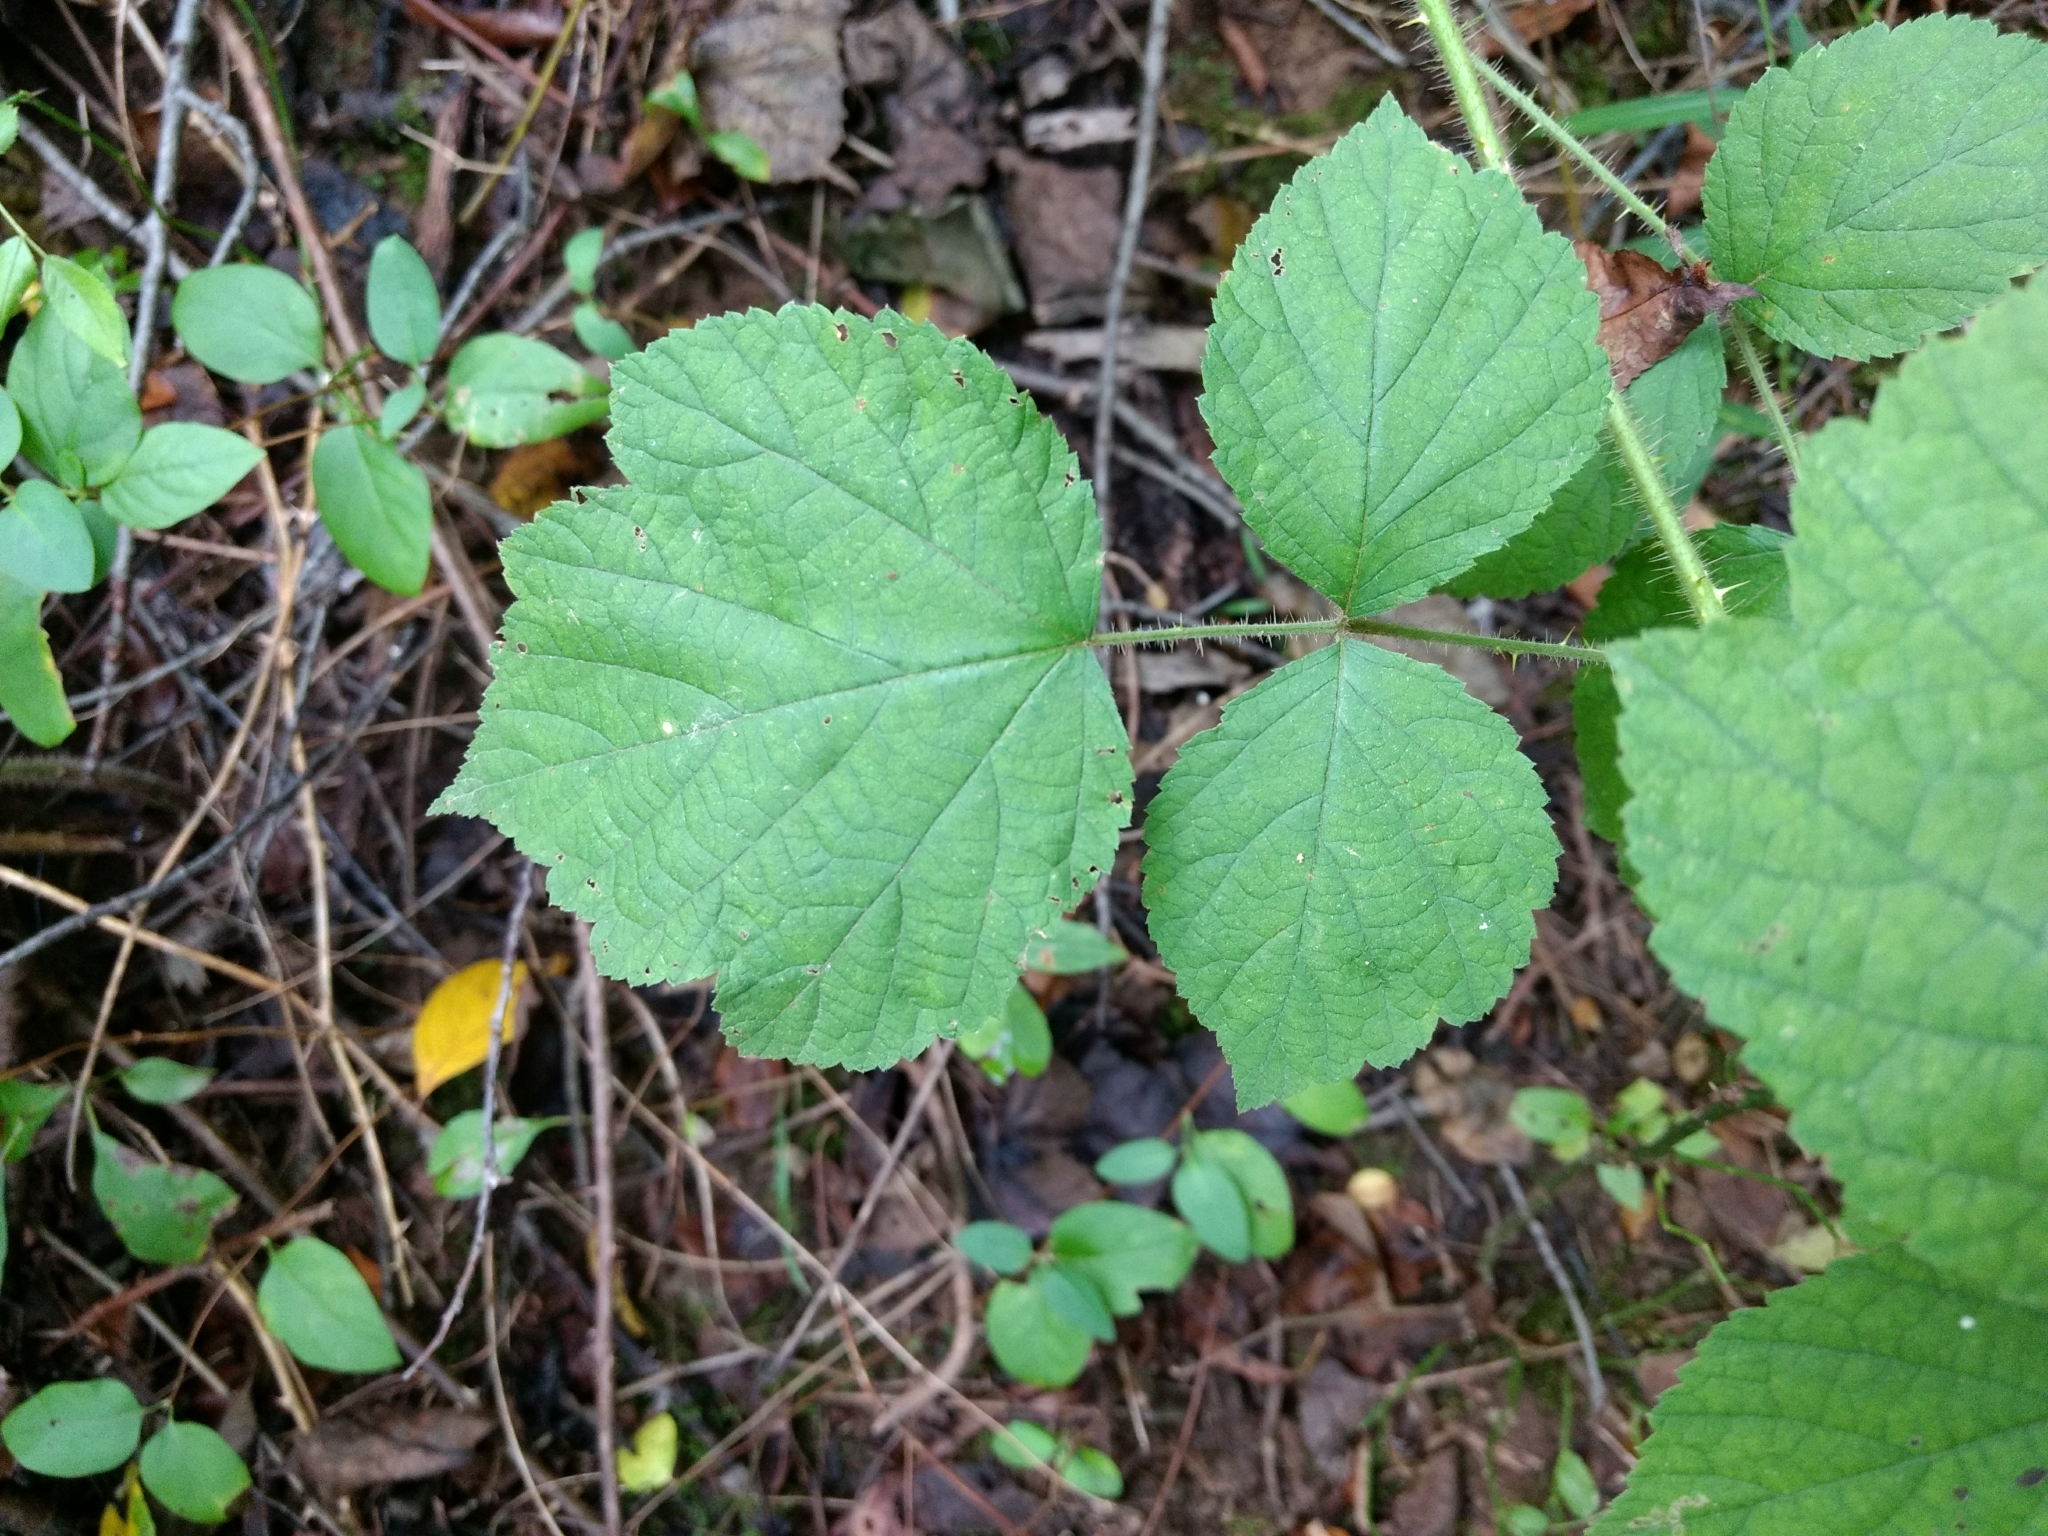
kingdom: Plantae
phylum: Tracheophyta
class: Magnoliopsida
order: Rosales
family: Rosaceae
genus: Rubus
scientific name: Rubus phoenicolasius
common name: Japanese wineberry
